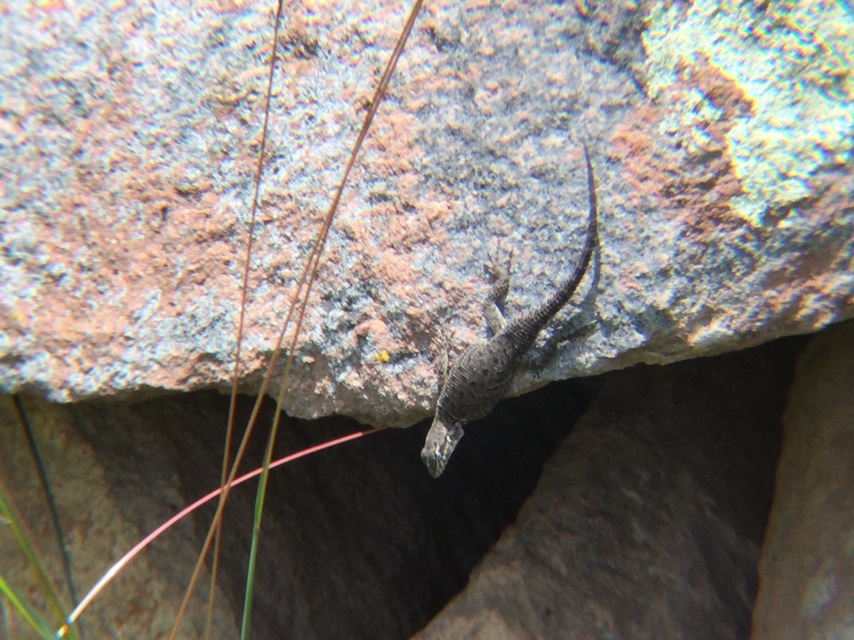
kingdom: Animalia
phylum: Chordata
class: Squamata
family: Phrynosomatidae
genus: Sceloporus
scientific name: Sceloporus dugesii
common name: Duges' spiny lizard
